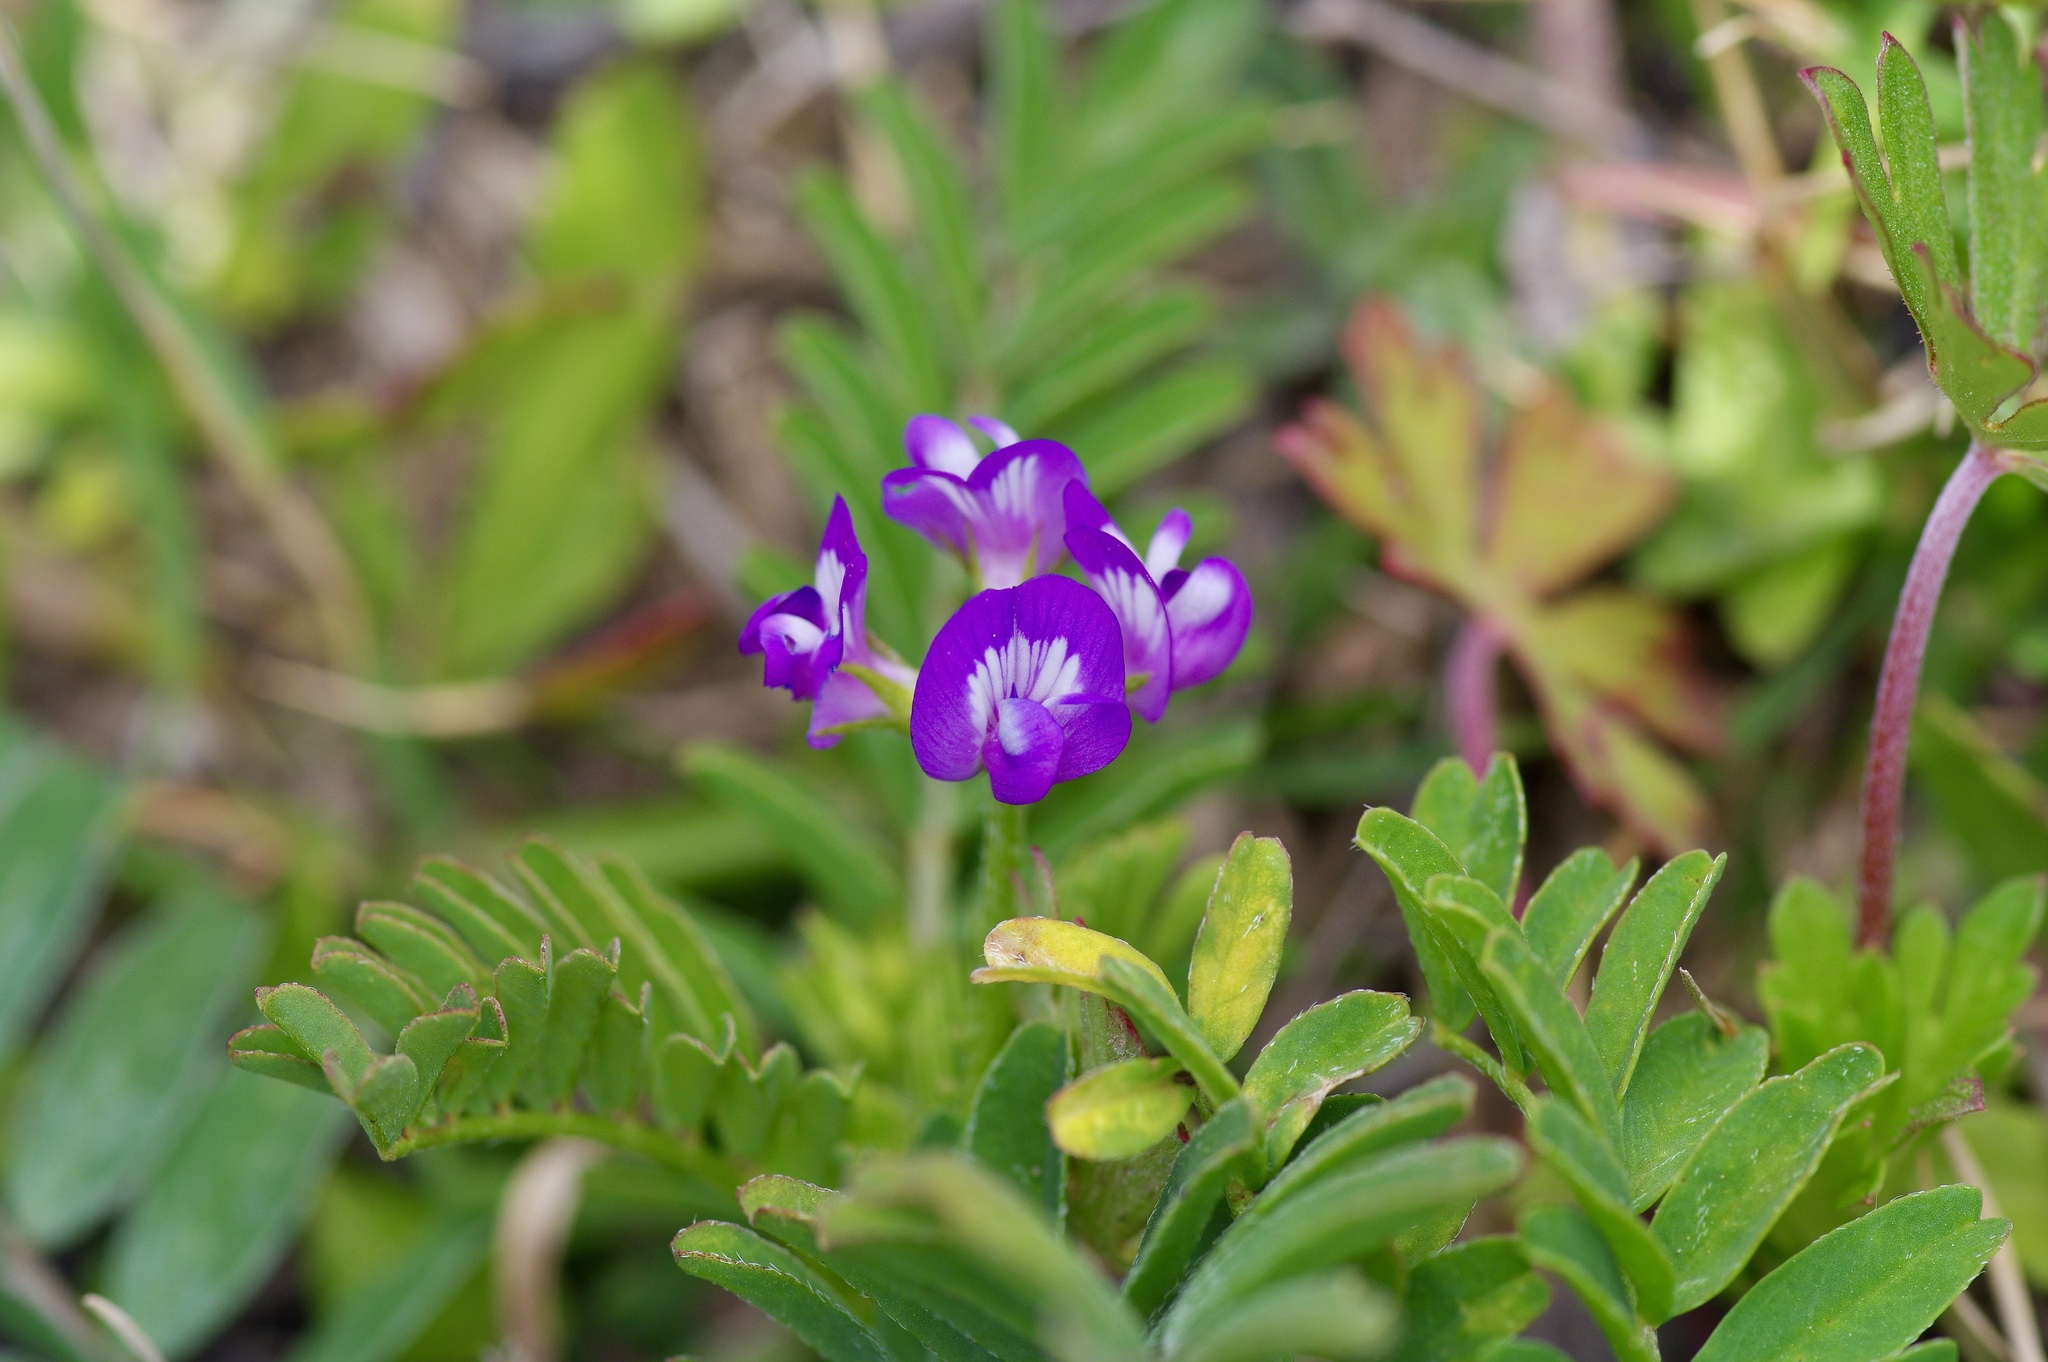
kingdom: Plantae
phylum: Tracheophyta
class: Magnoliopsida
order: Fabales
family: Fabaceae
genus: Astragalus
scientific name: Astragalus nuttallianus
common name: Smallflowered milkvetch
